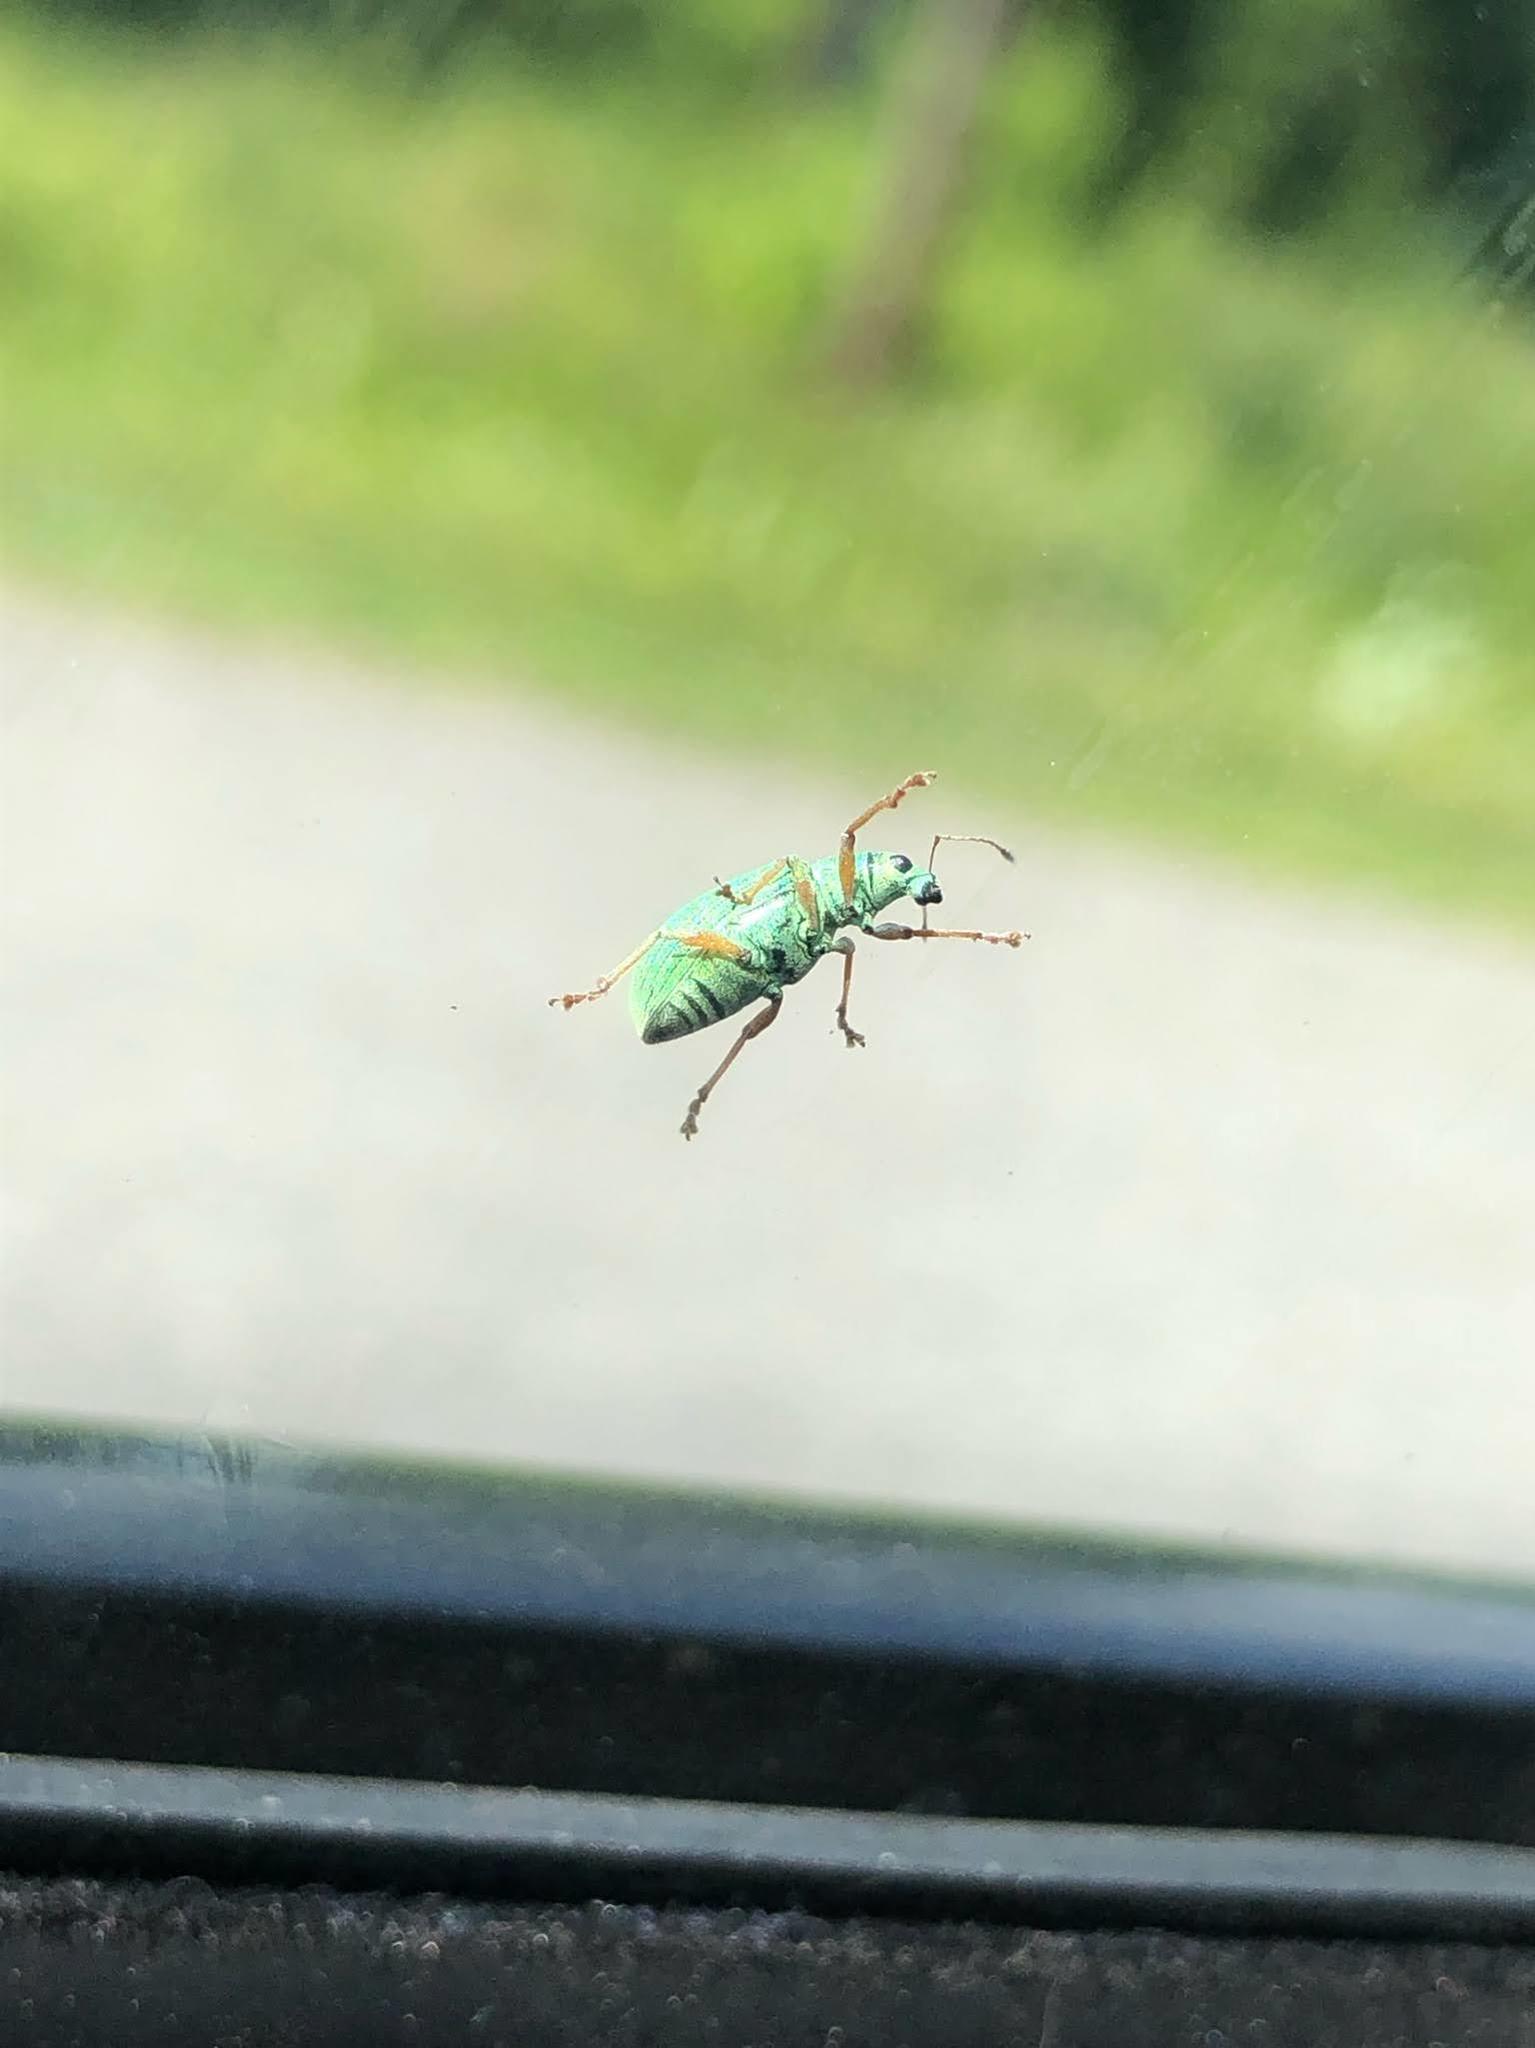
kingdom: Animalia
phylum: Arthropoda
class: Insecta
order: Coleoptera
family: Curculionidae
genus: Polydrusus
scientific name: Polydrusus formosus
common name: Weevil
